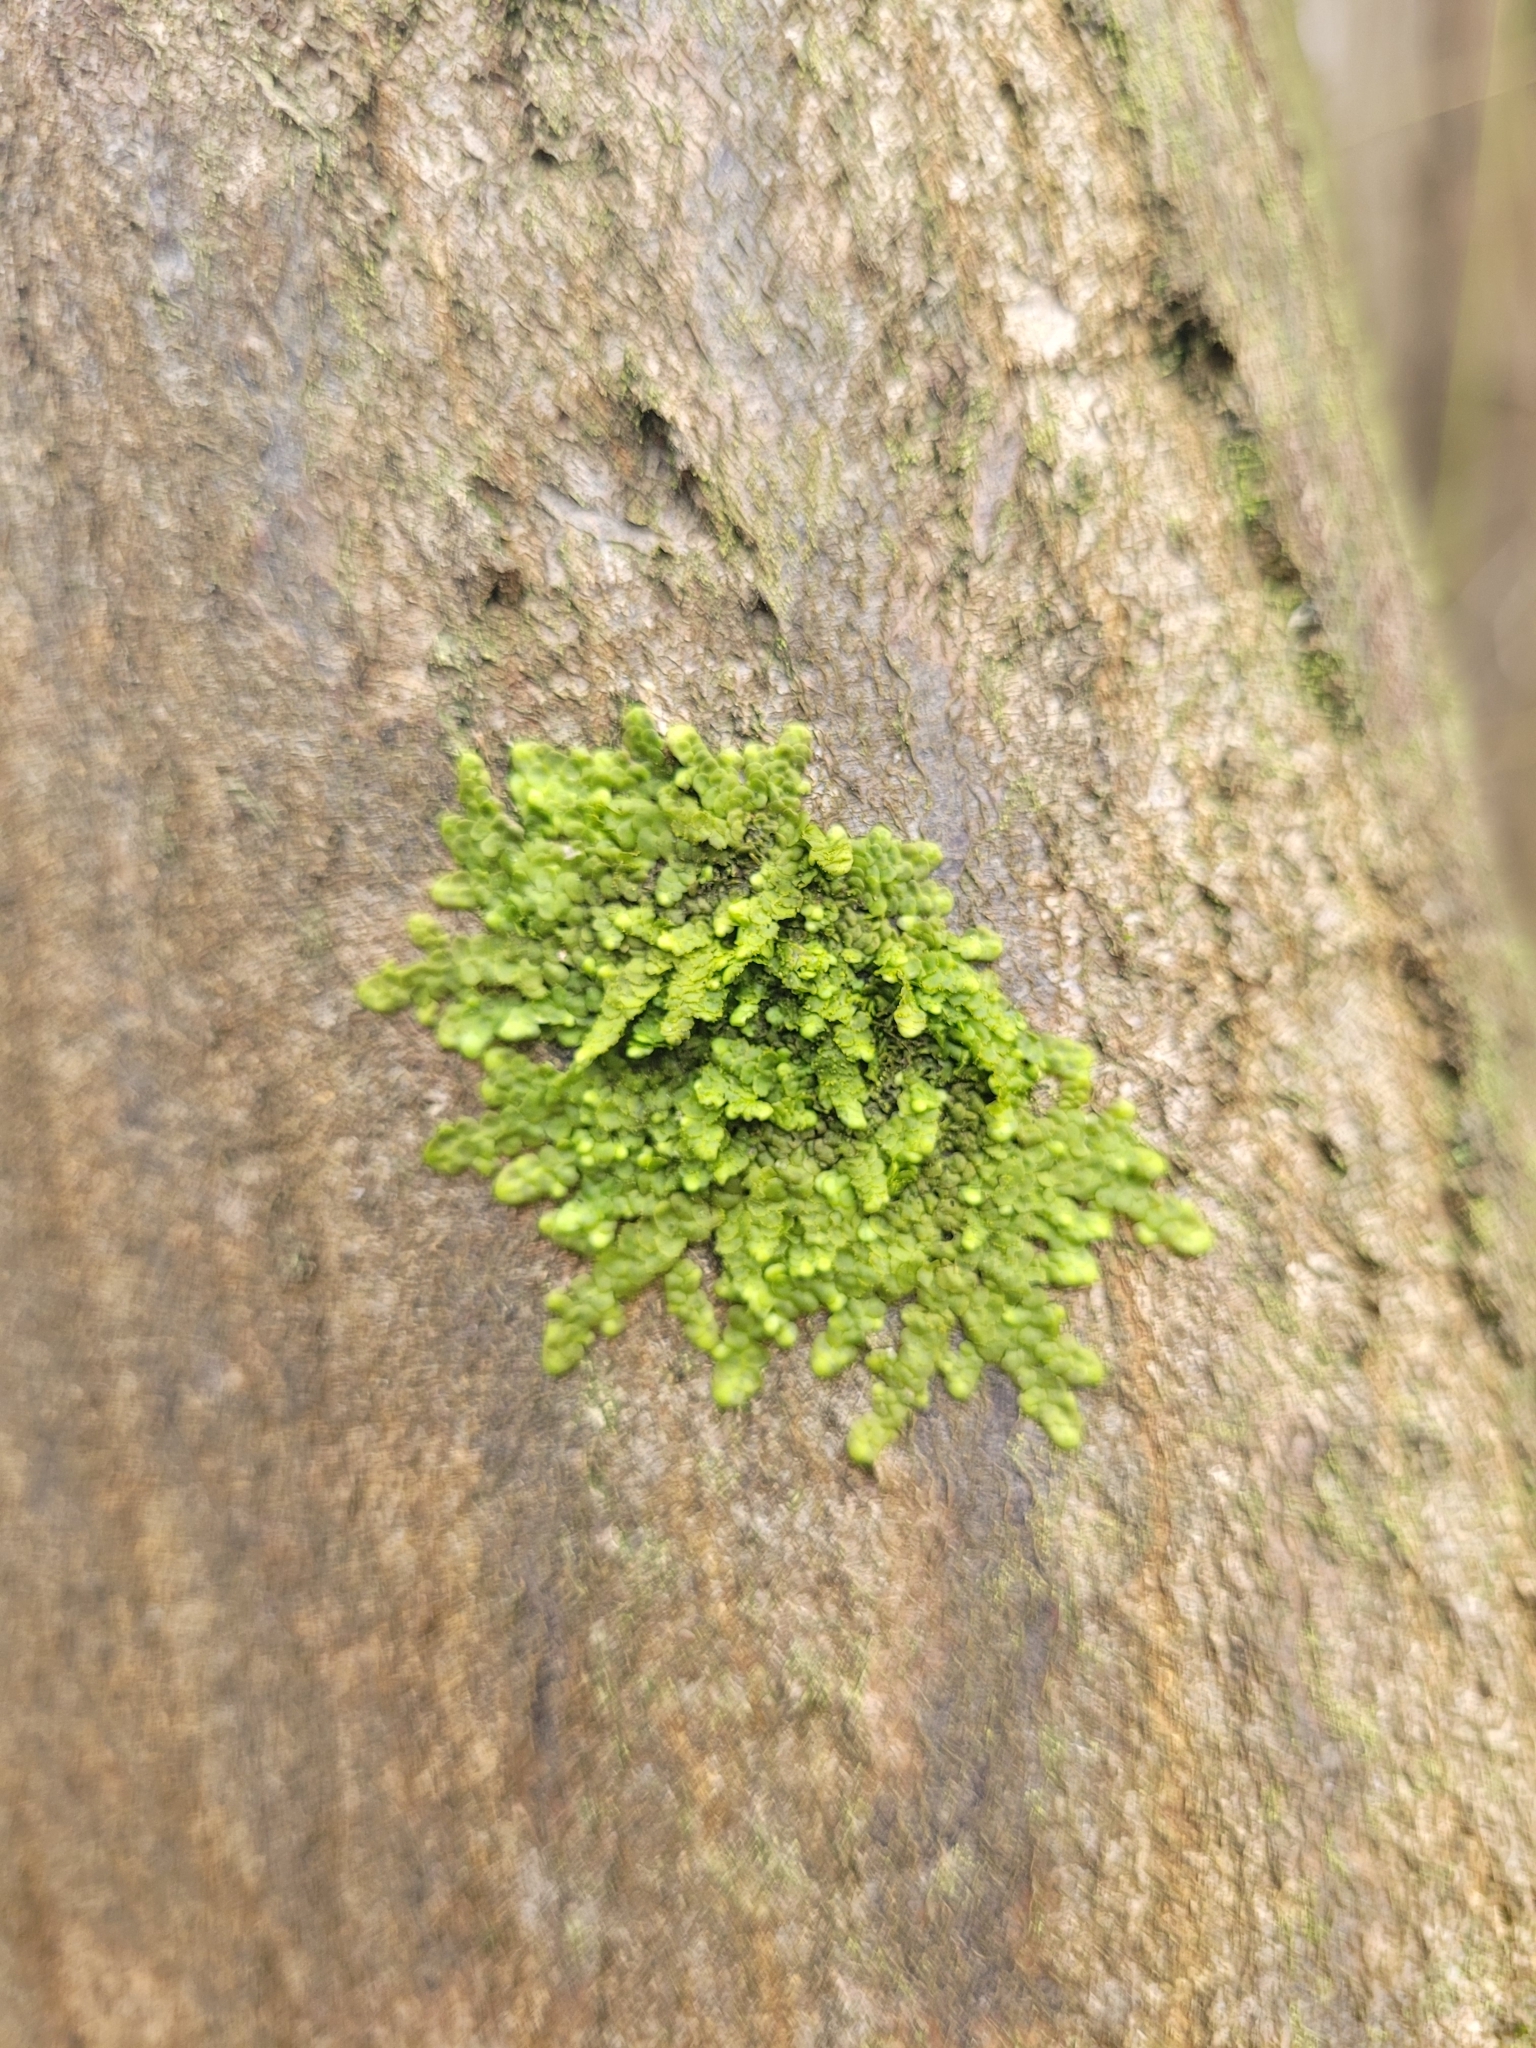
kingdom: Plantae
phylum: Marchantiophyta
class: Jungermanniopsida
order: Porellales
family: Radulaceae
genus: Radula
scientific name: Radula complanata
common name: Flat-leaved scalewort
